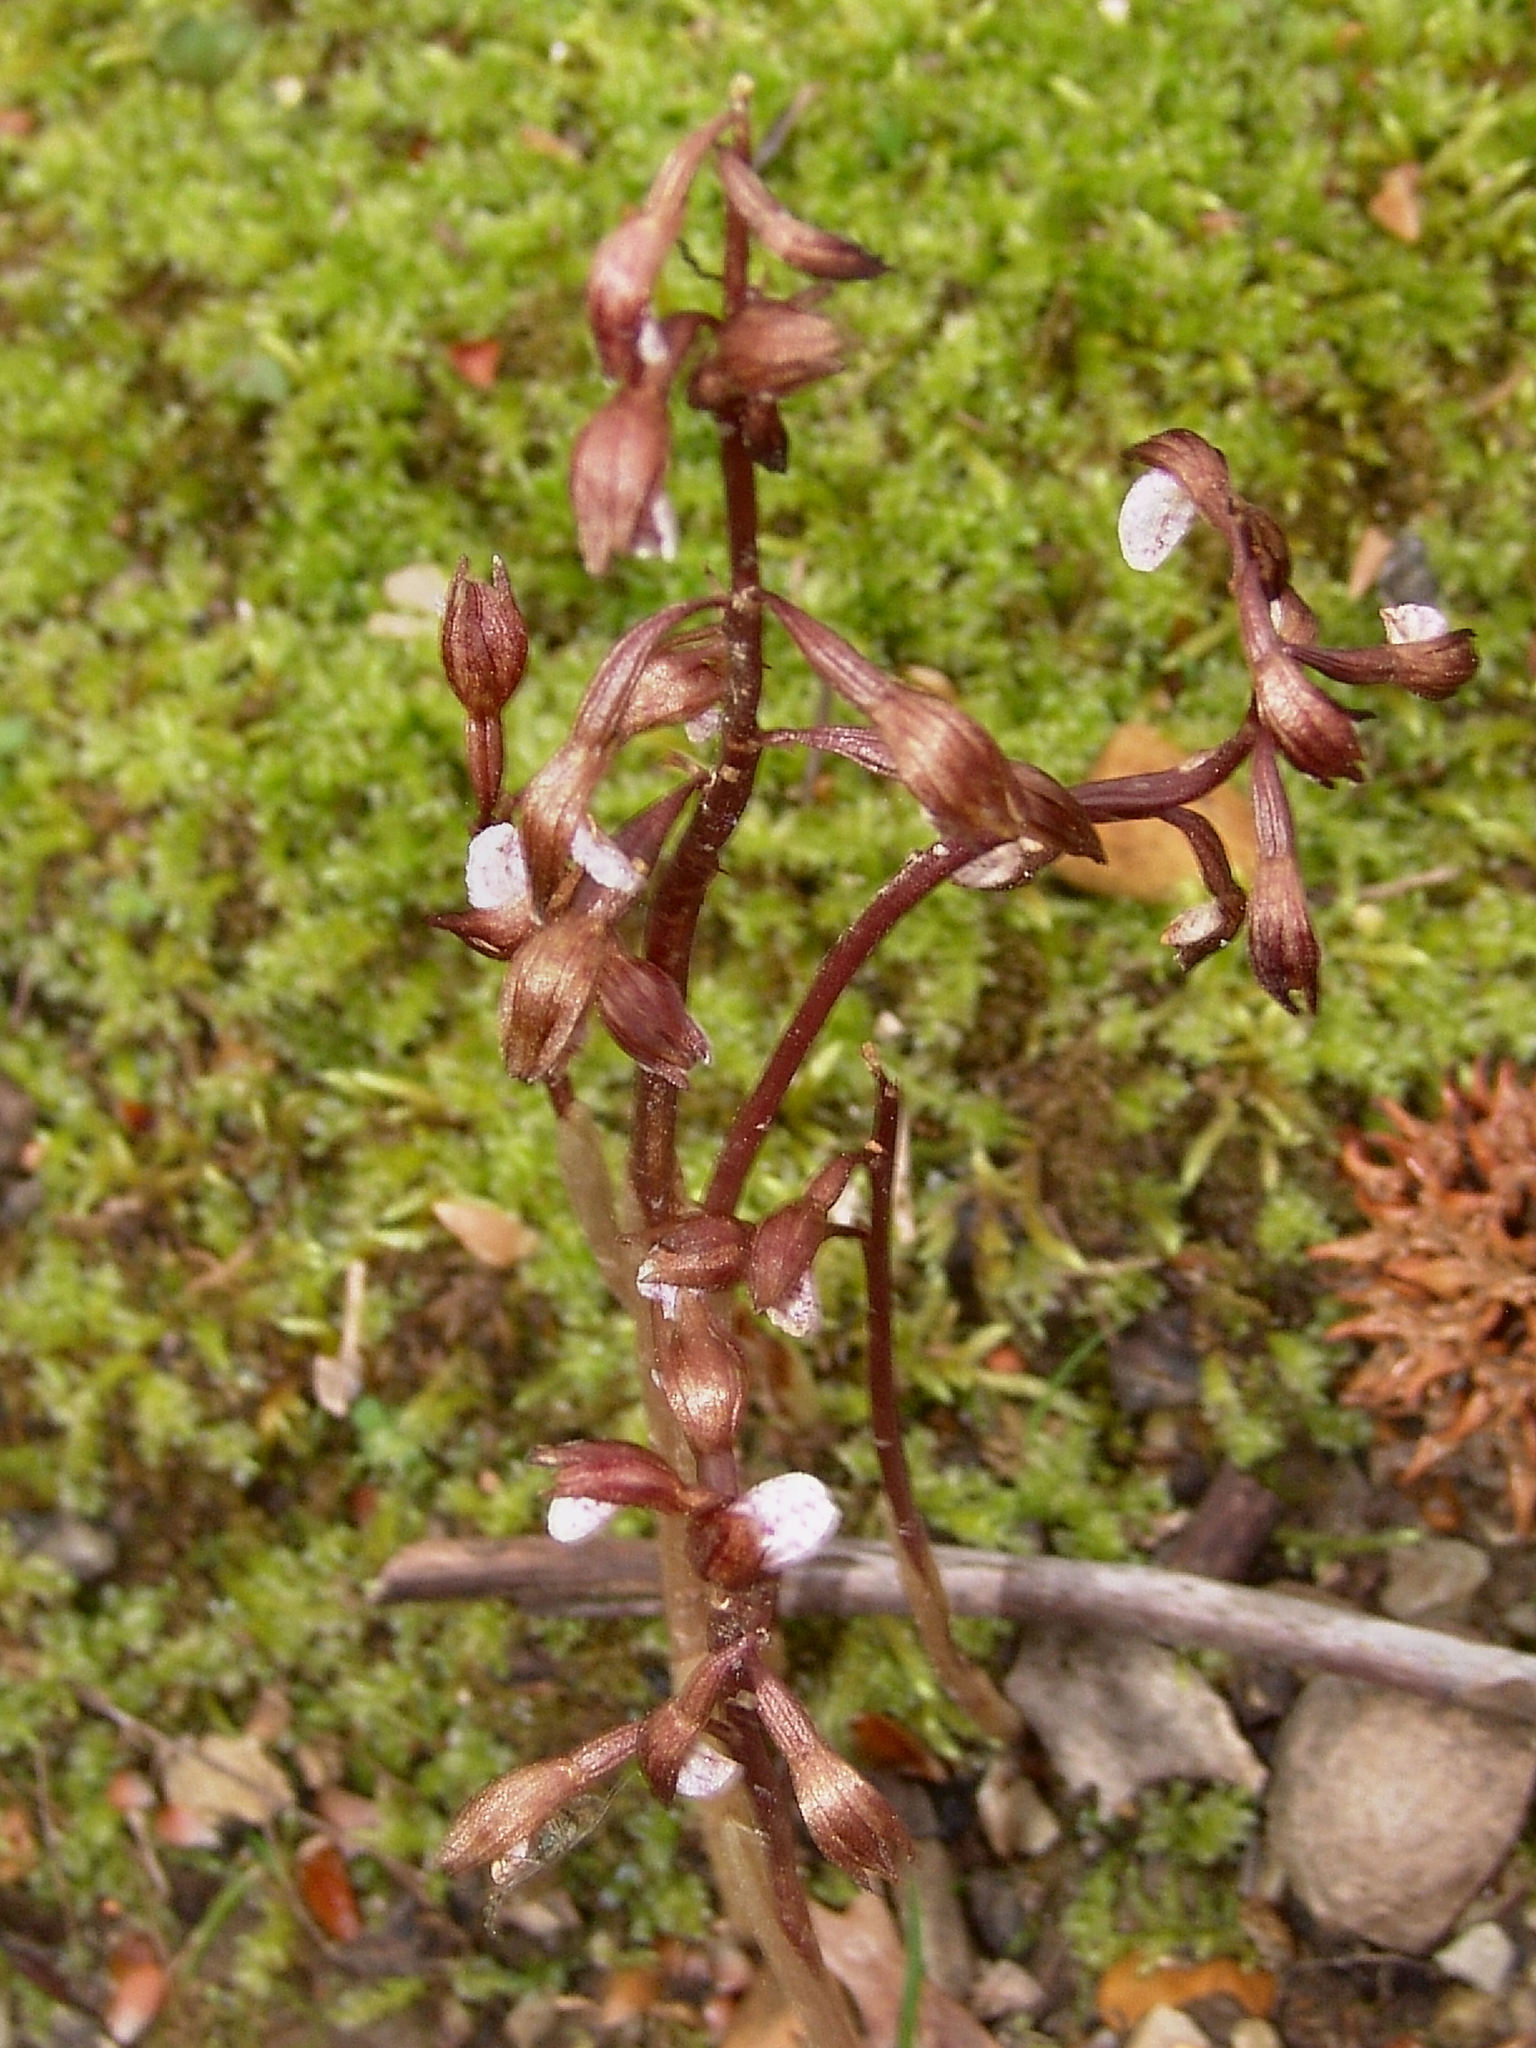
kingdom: Plantae
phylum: Tracheophyta
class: Liliopsida
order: Asparagales
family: Orchidaceae
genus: Corallorhiza
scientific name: Corallorhiza wisteriana
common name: Spring coralroot
